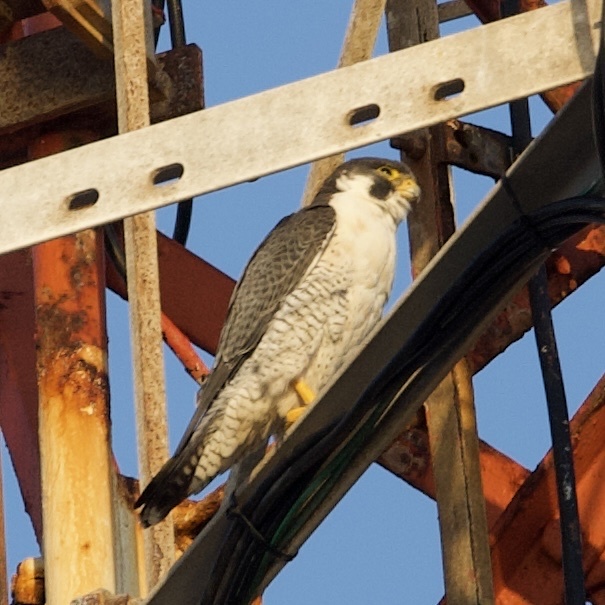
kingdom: Animalia
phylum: Chordata
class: Aves
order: Falconiformes
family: Falconidae
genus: Falco
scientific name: Falco peregrinus
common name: Peregrine falcon
